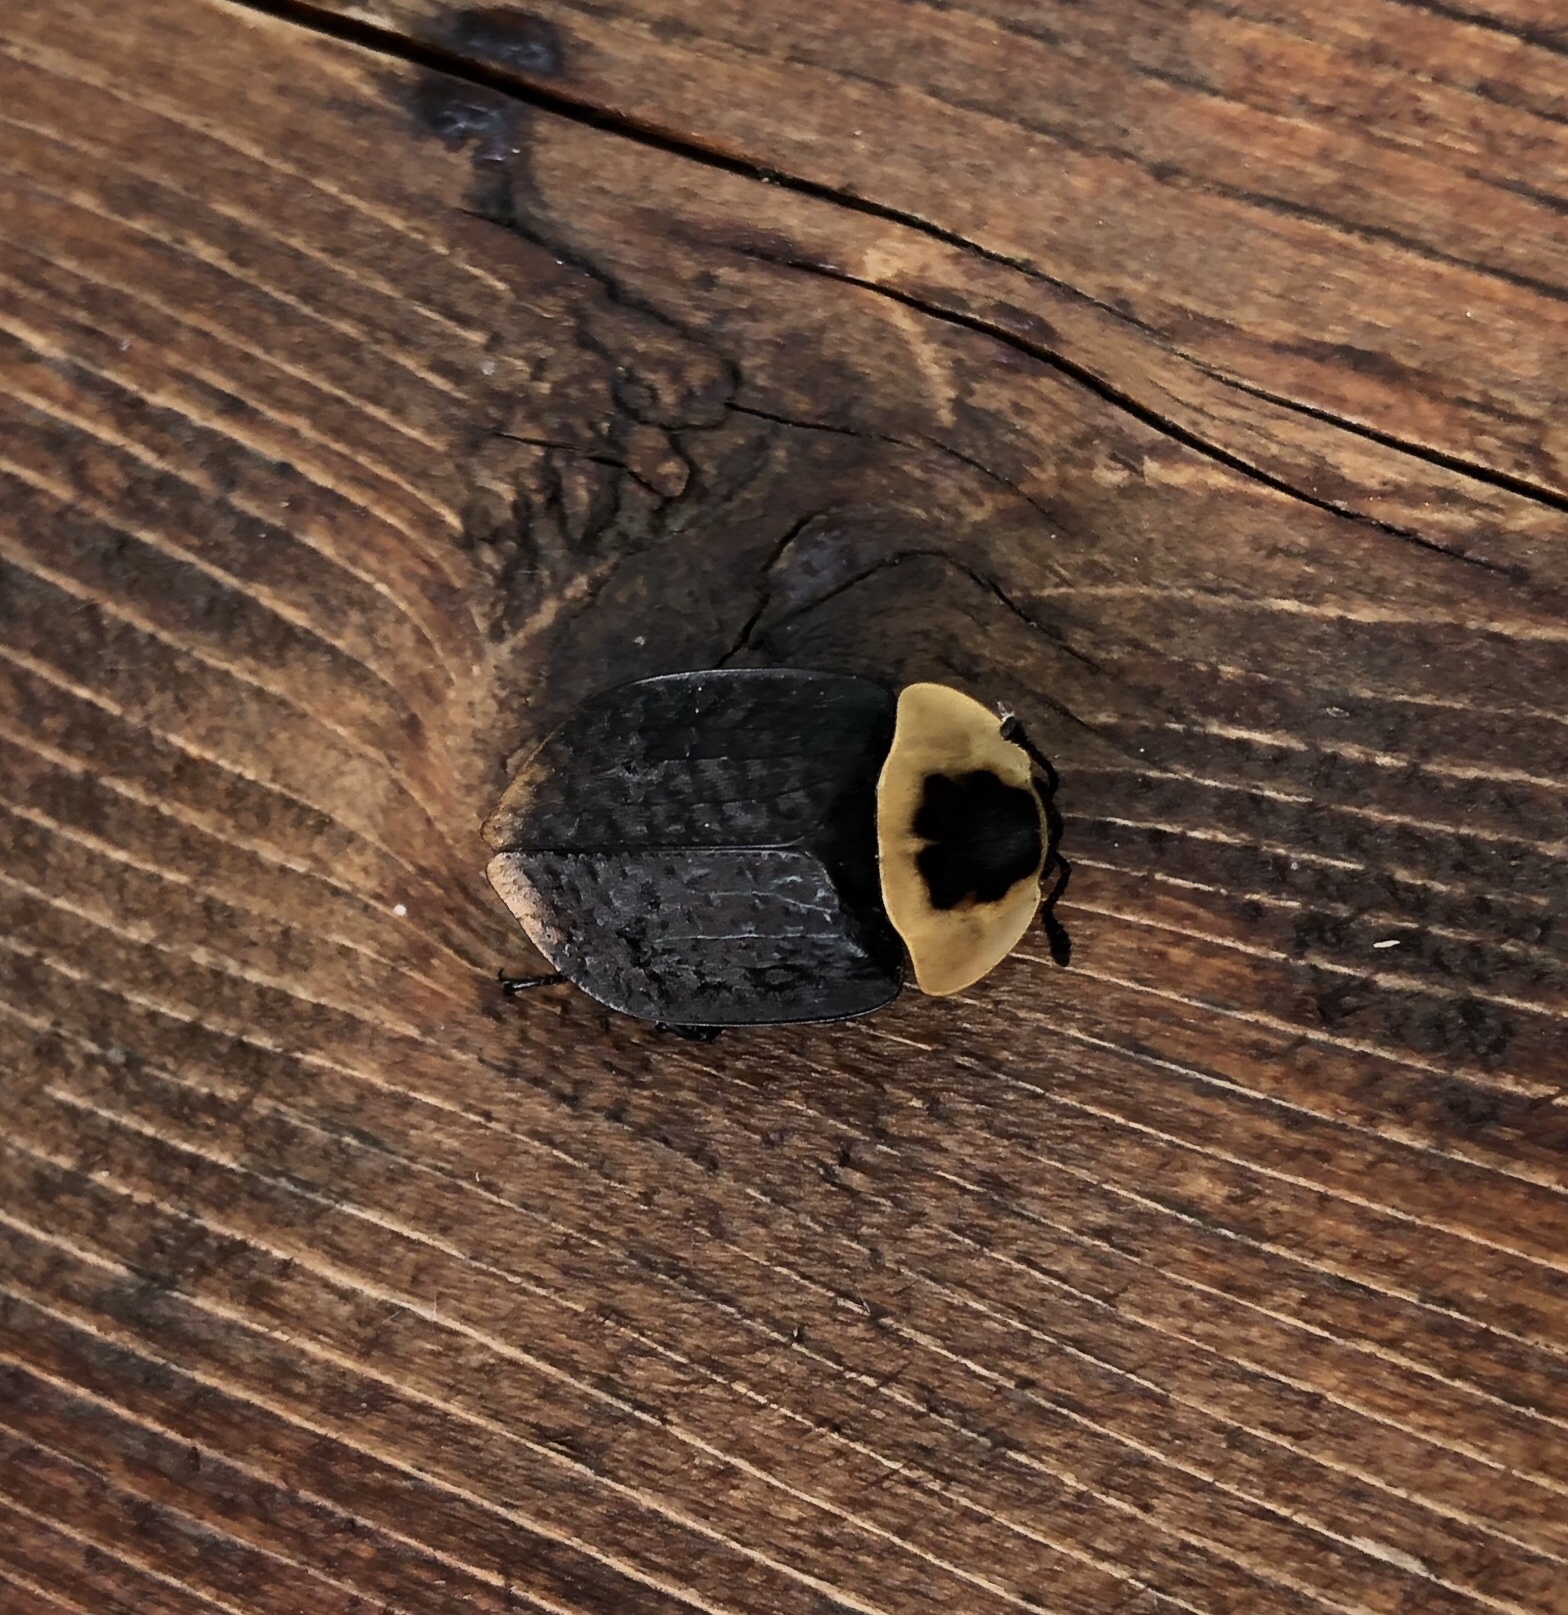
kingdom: Animalia
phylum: Arthropoda
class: Insecta
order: Coleoptera
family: Staphylinidae
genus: Necrophila
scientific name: Necrophila americana
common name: American carrion beetle
